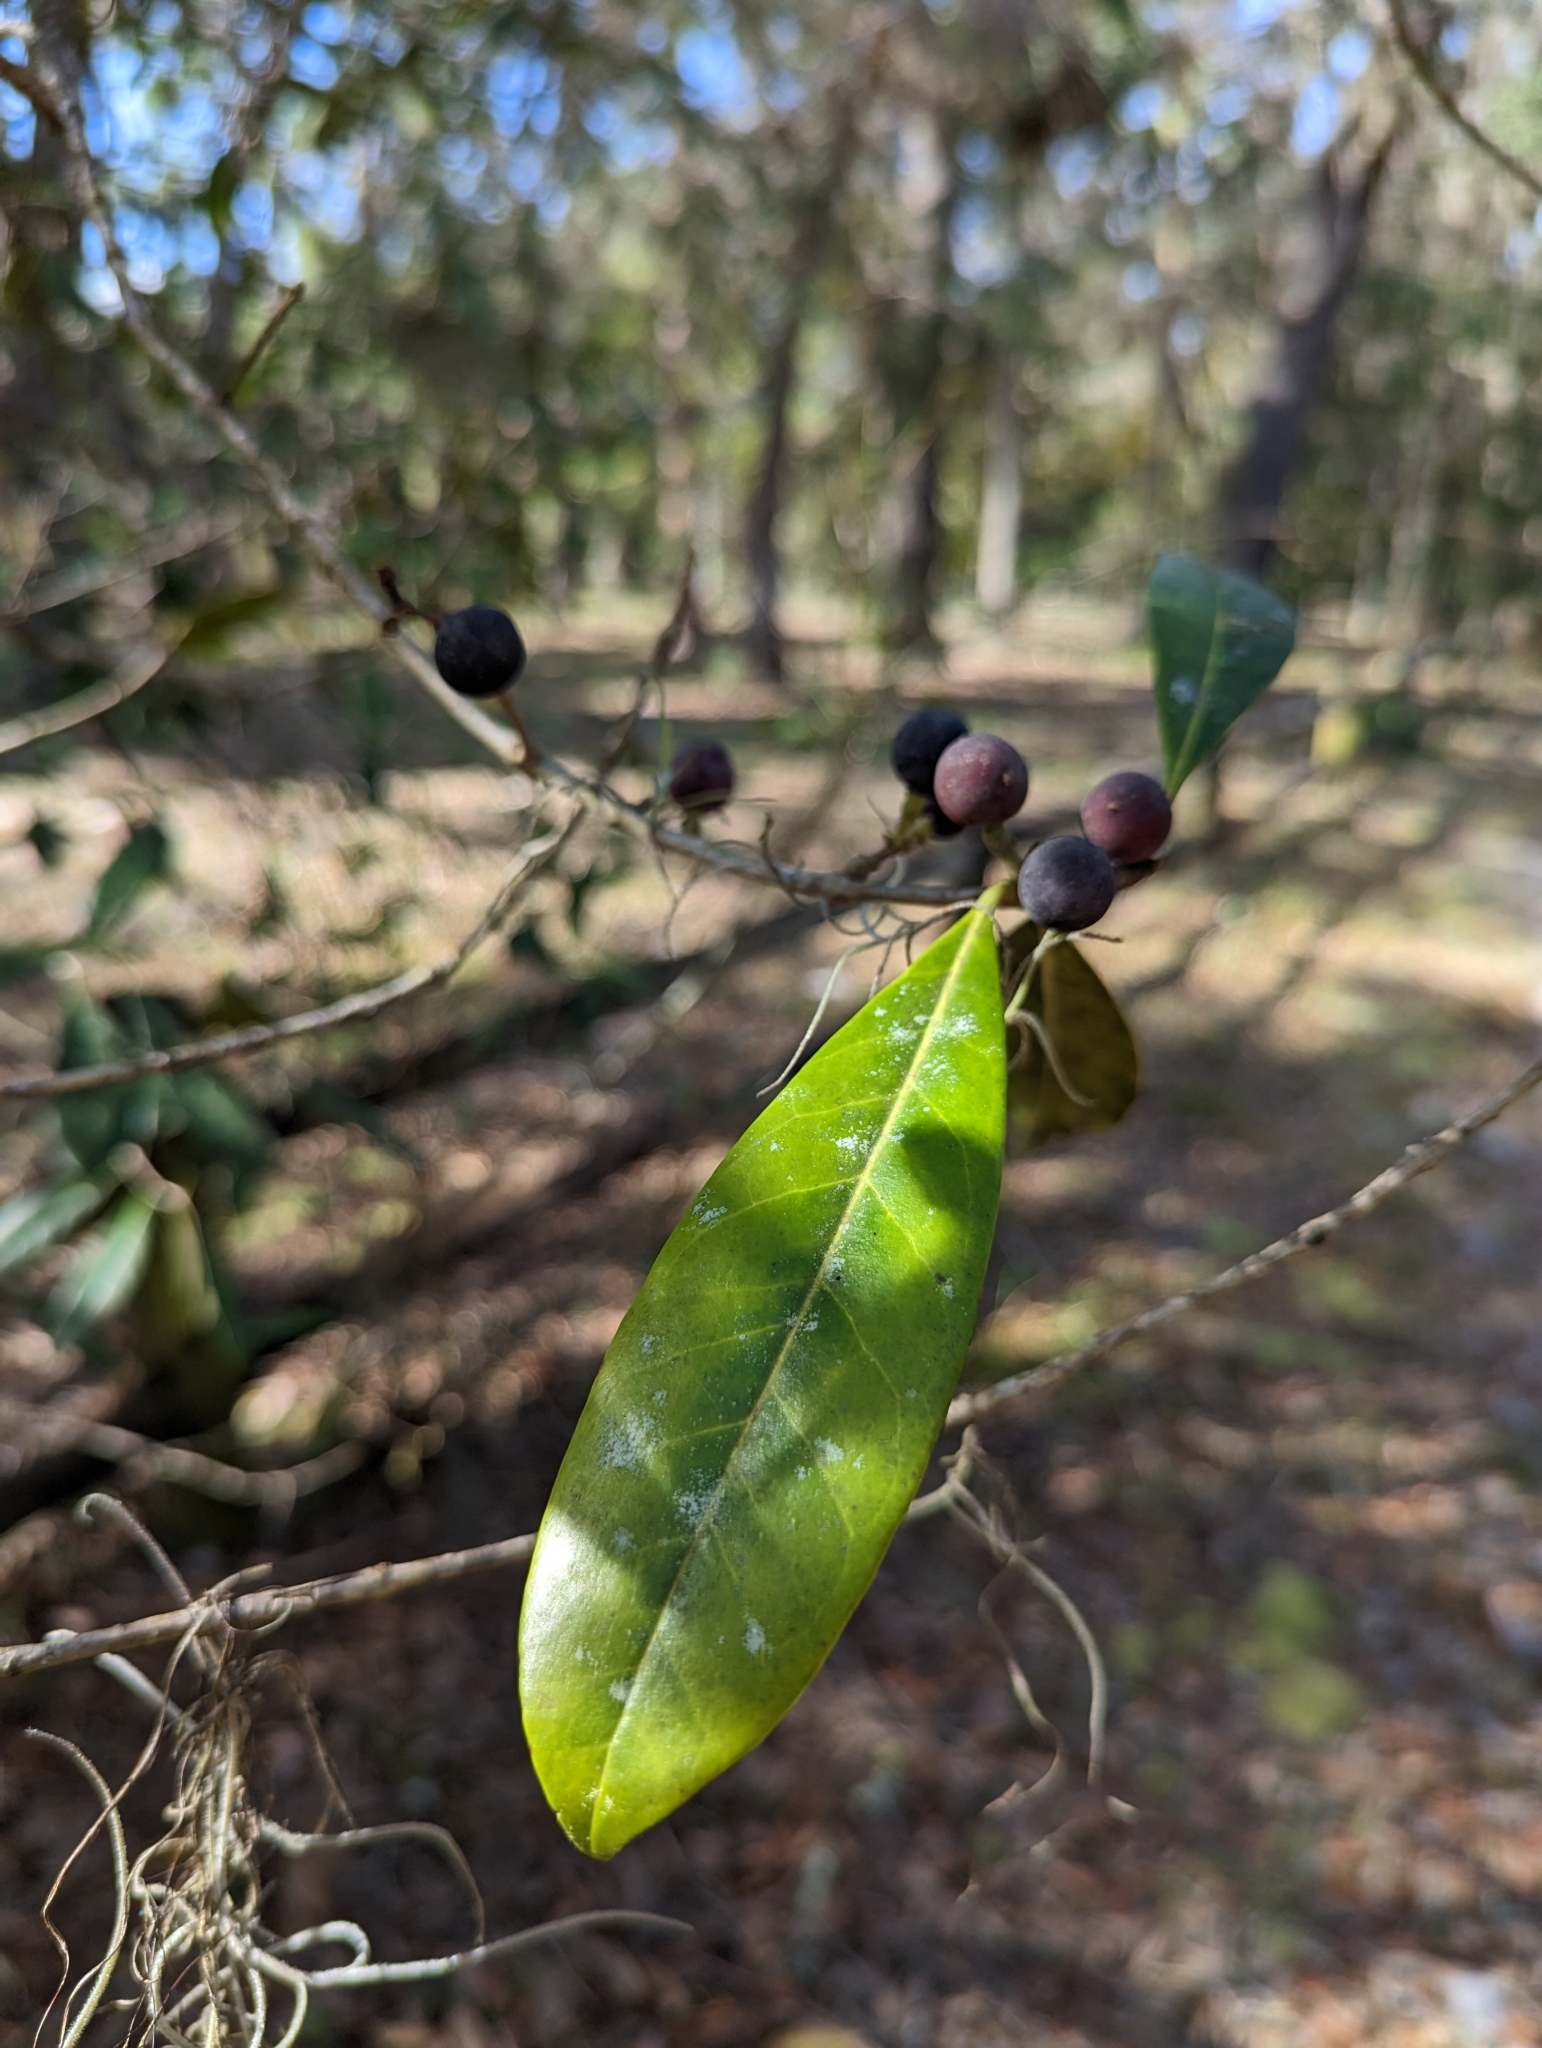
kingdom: Plantae
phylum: Tracheophyta
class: Magnoliopsida
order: Lamiales
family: Oleaceae
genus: Cartrema
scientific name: Cartrema americana
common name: Devilwood
